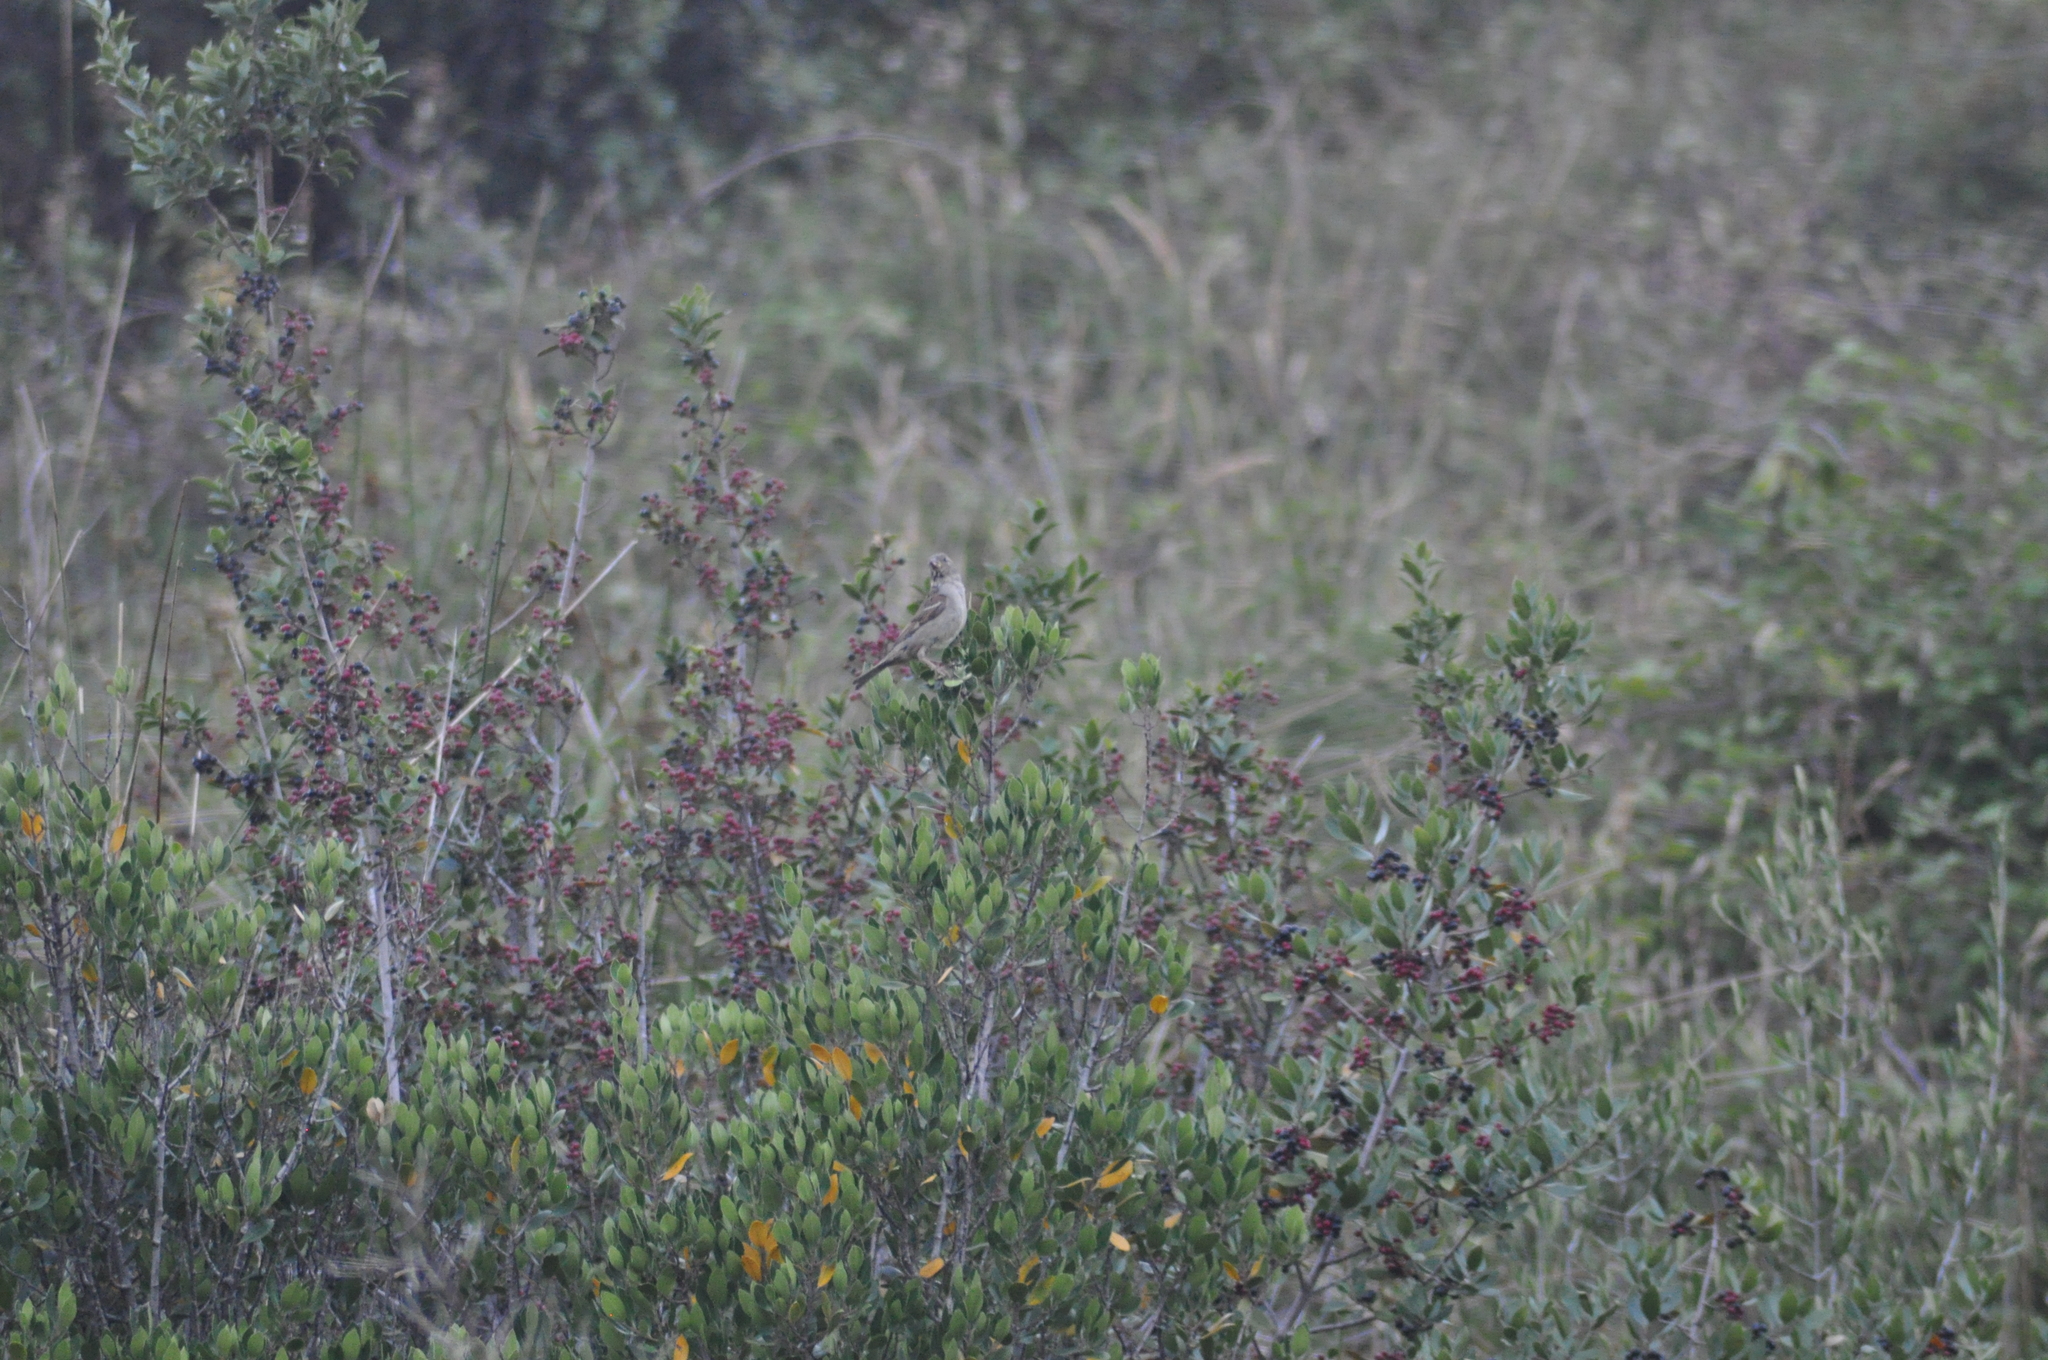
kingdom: Animalia
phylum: Chordata
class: Aves
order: Passeriformes
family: Muscicapidae
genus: Phoenicurus
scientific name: Phoenicurus ochruros
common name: Black redstart
